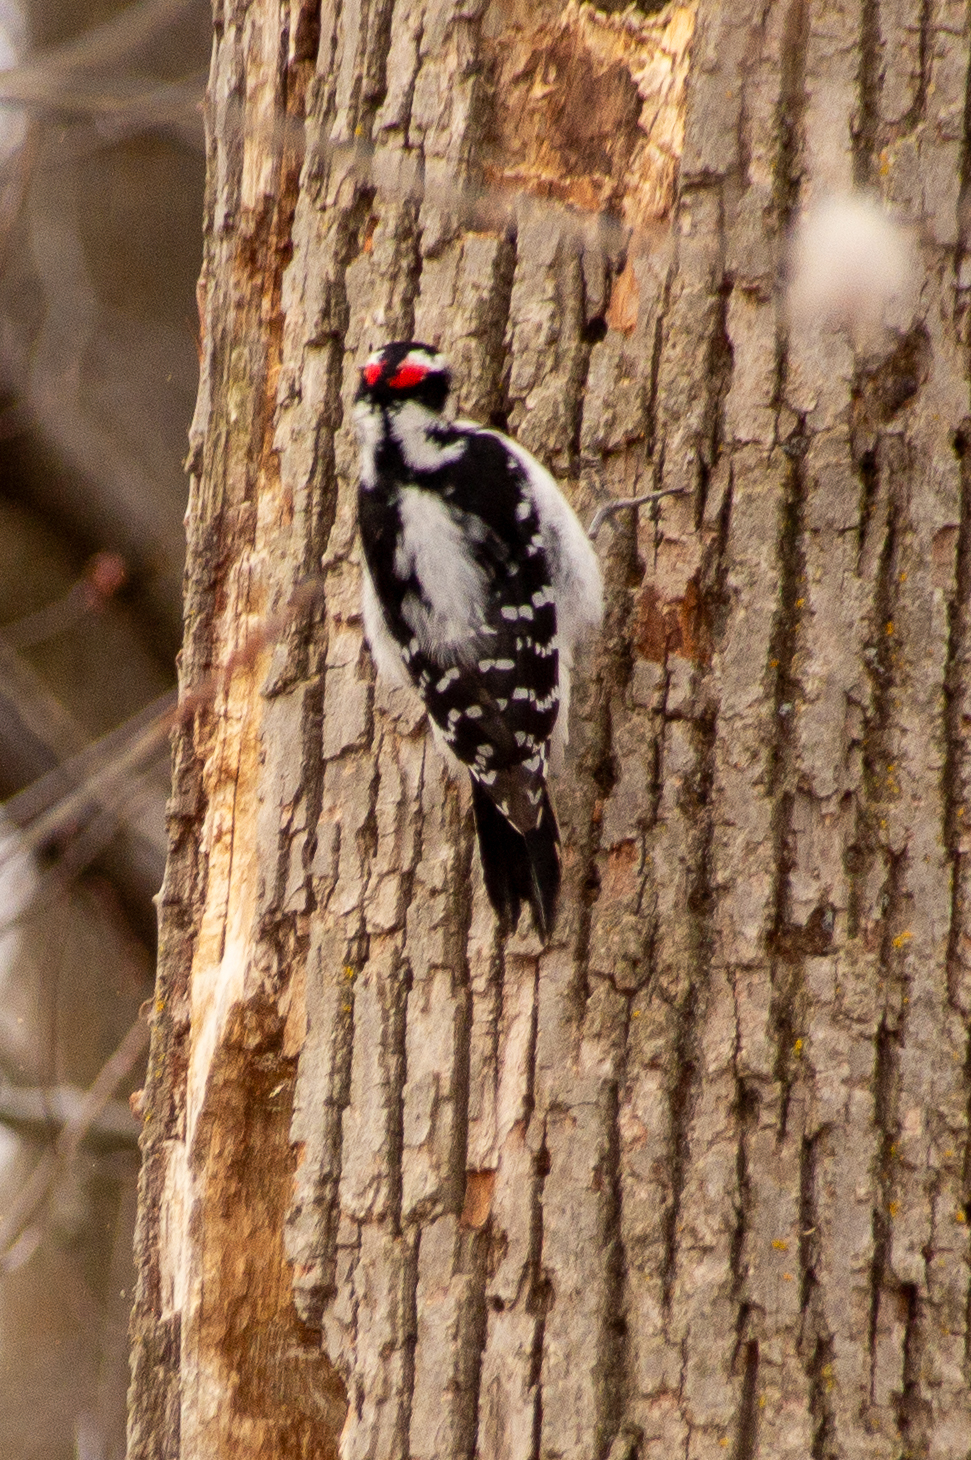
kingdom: Animalia
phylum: Chordata
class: Aves
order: Piciformes
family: Picidae
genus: Leuconotopicus
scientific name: Leuconotopicus villosus
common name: Hairy woodpecker
